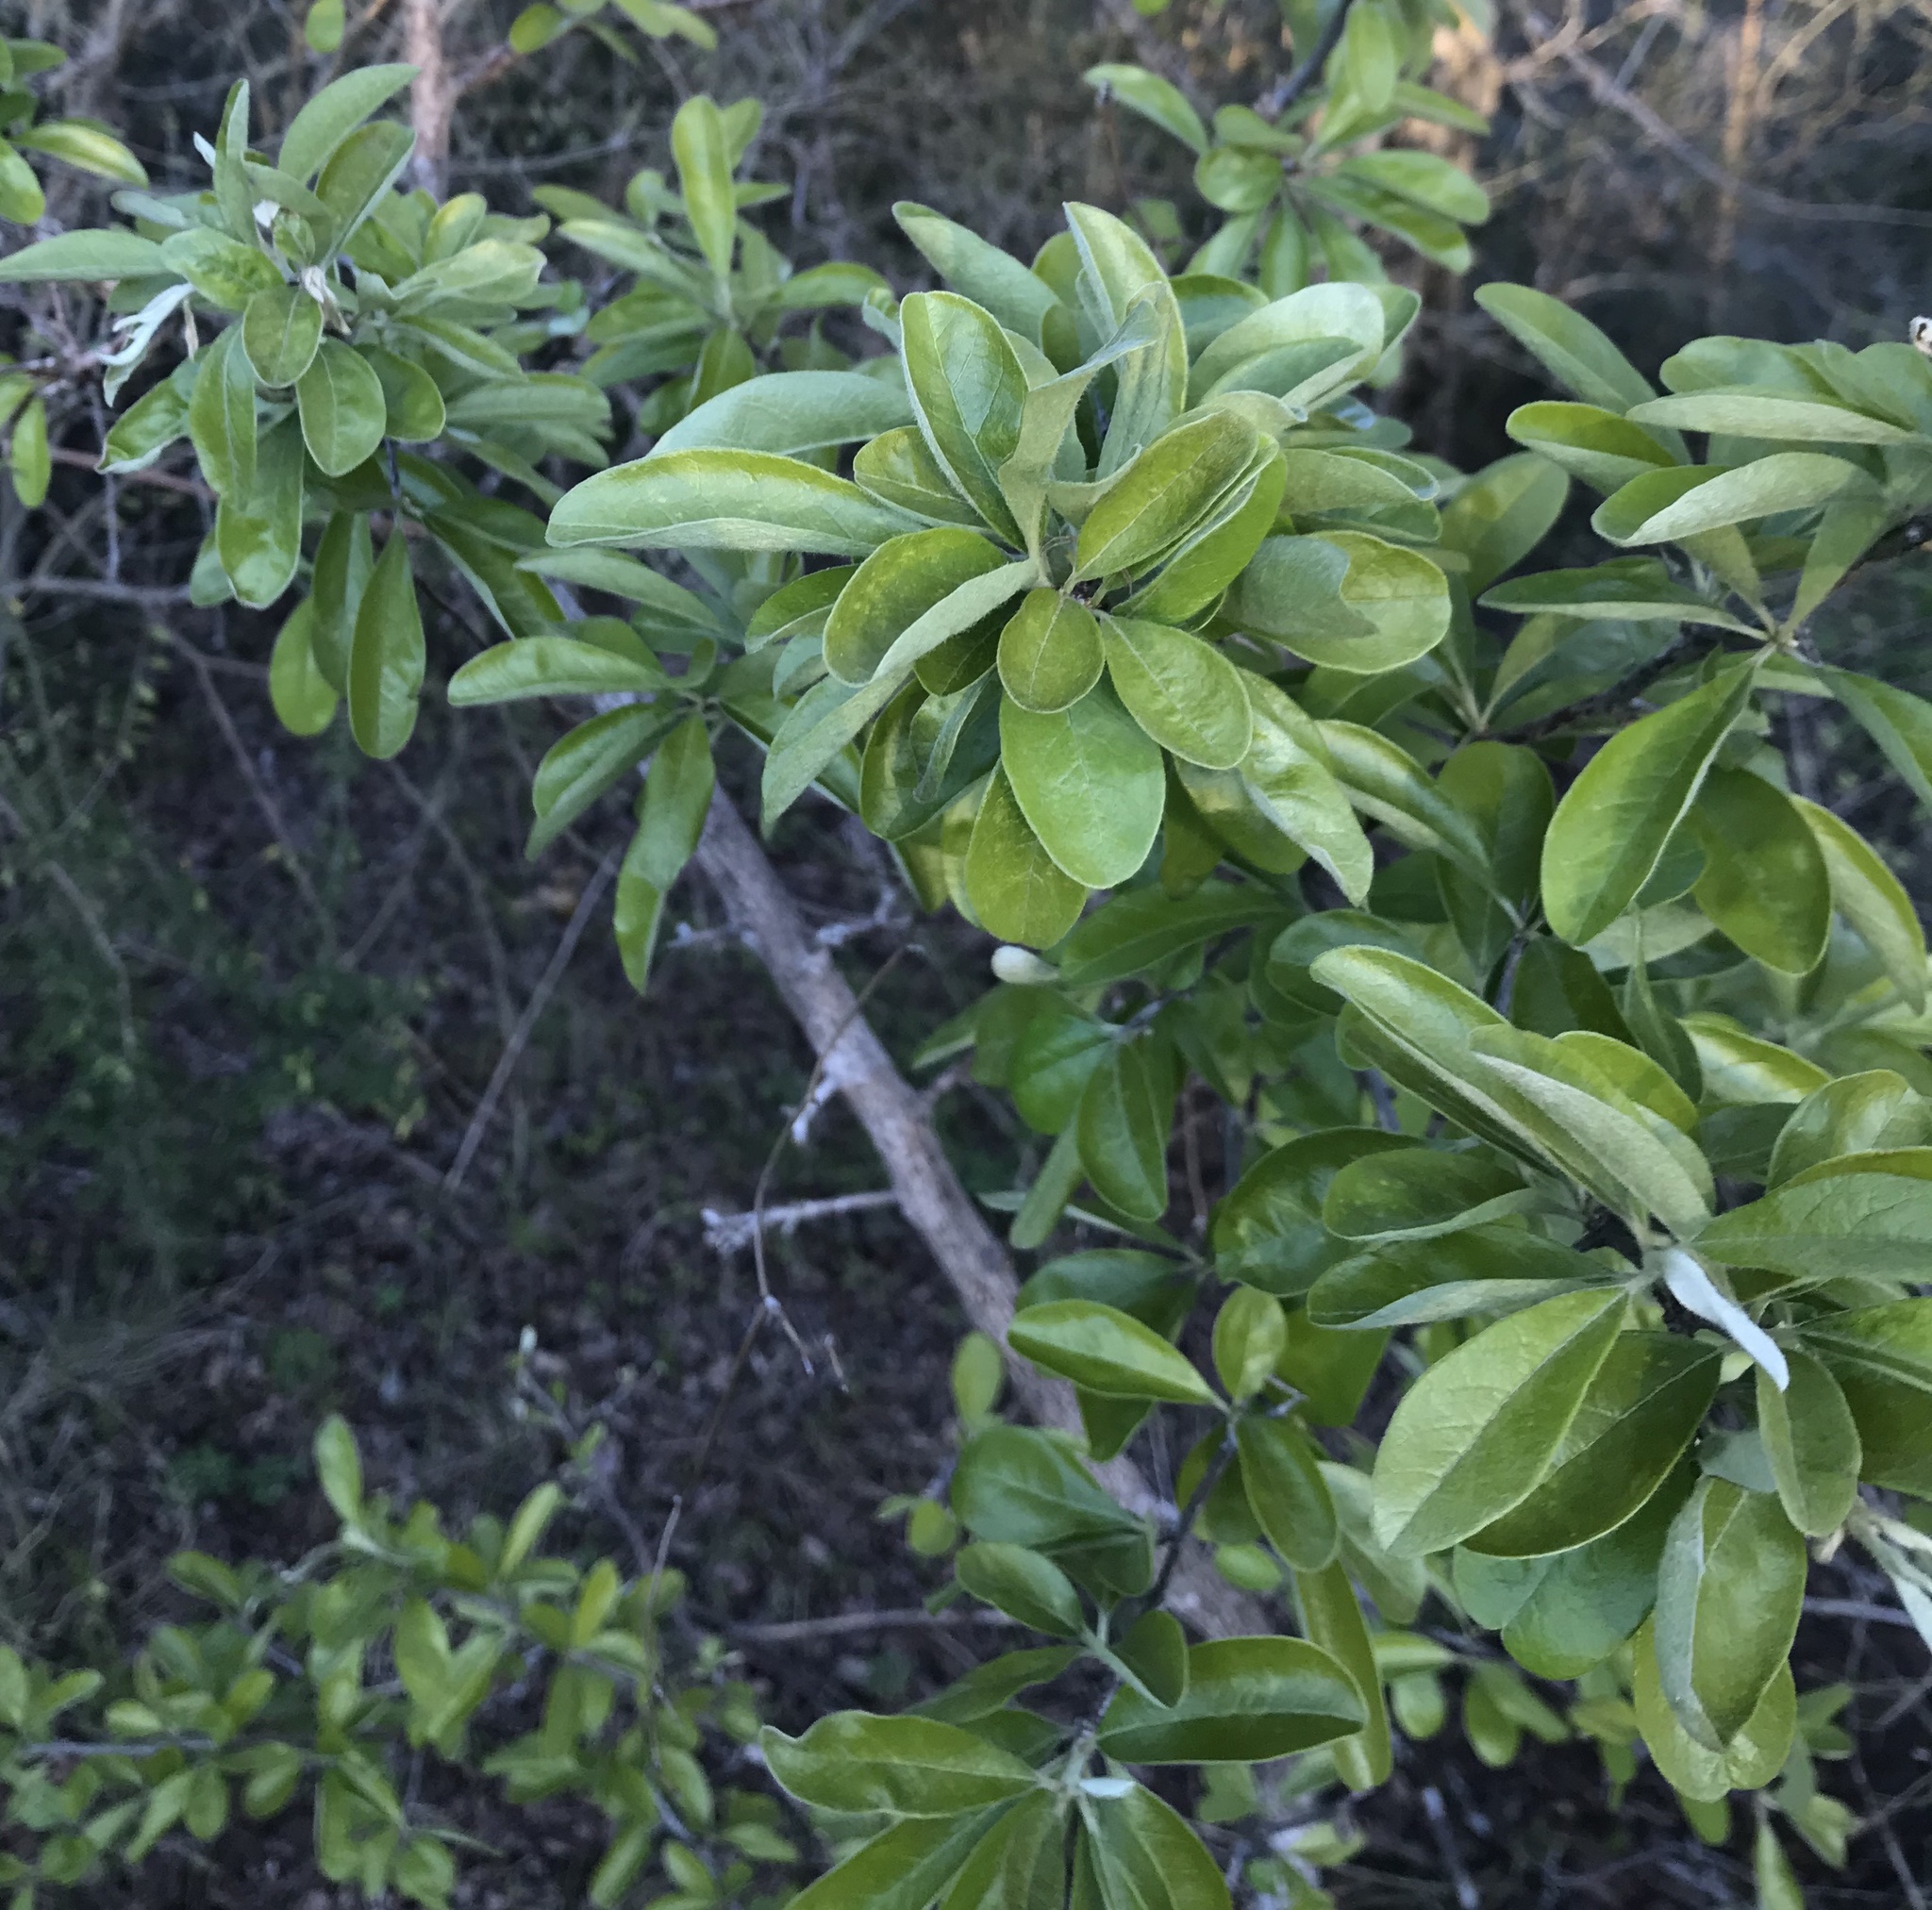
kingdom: Plantae
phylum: Tracheophyta
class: Magnoliopsida
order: Ericales
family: Sapotaceae
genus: Sideroxylon
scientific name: Sideroxylon lanuginosum
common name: Chittamwood
